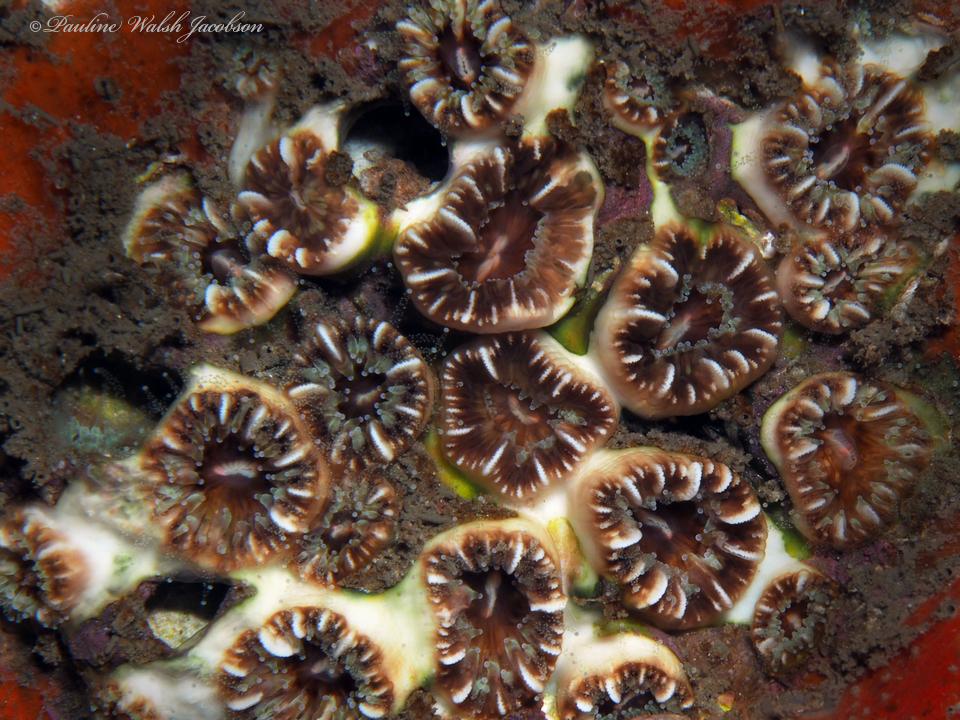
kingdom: Animalia
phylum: Cnidaria
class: Anthozoa
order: Scleractinia
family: Caryophylliidae
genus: Phyllangia
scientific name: Phyllangia americana
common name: Hidden cup coral
